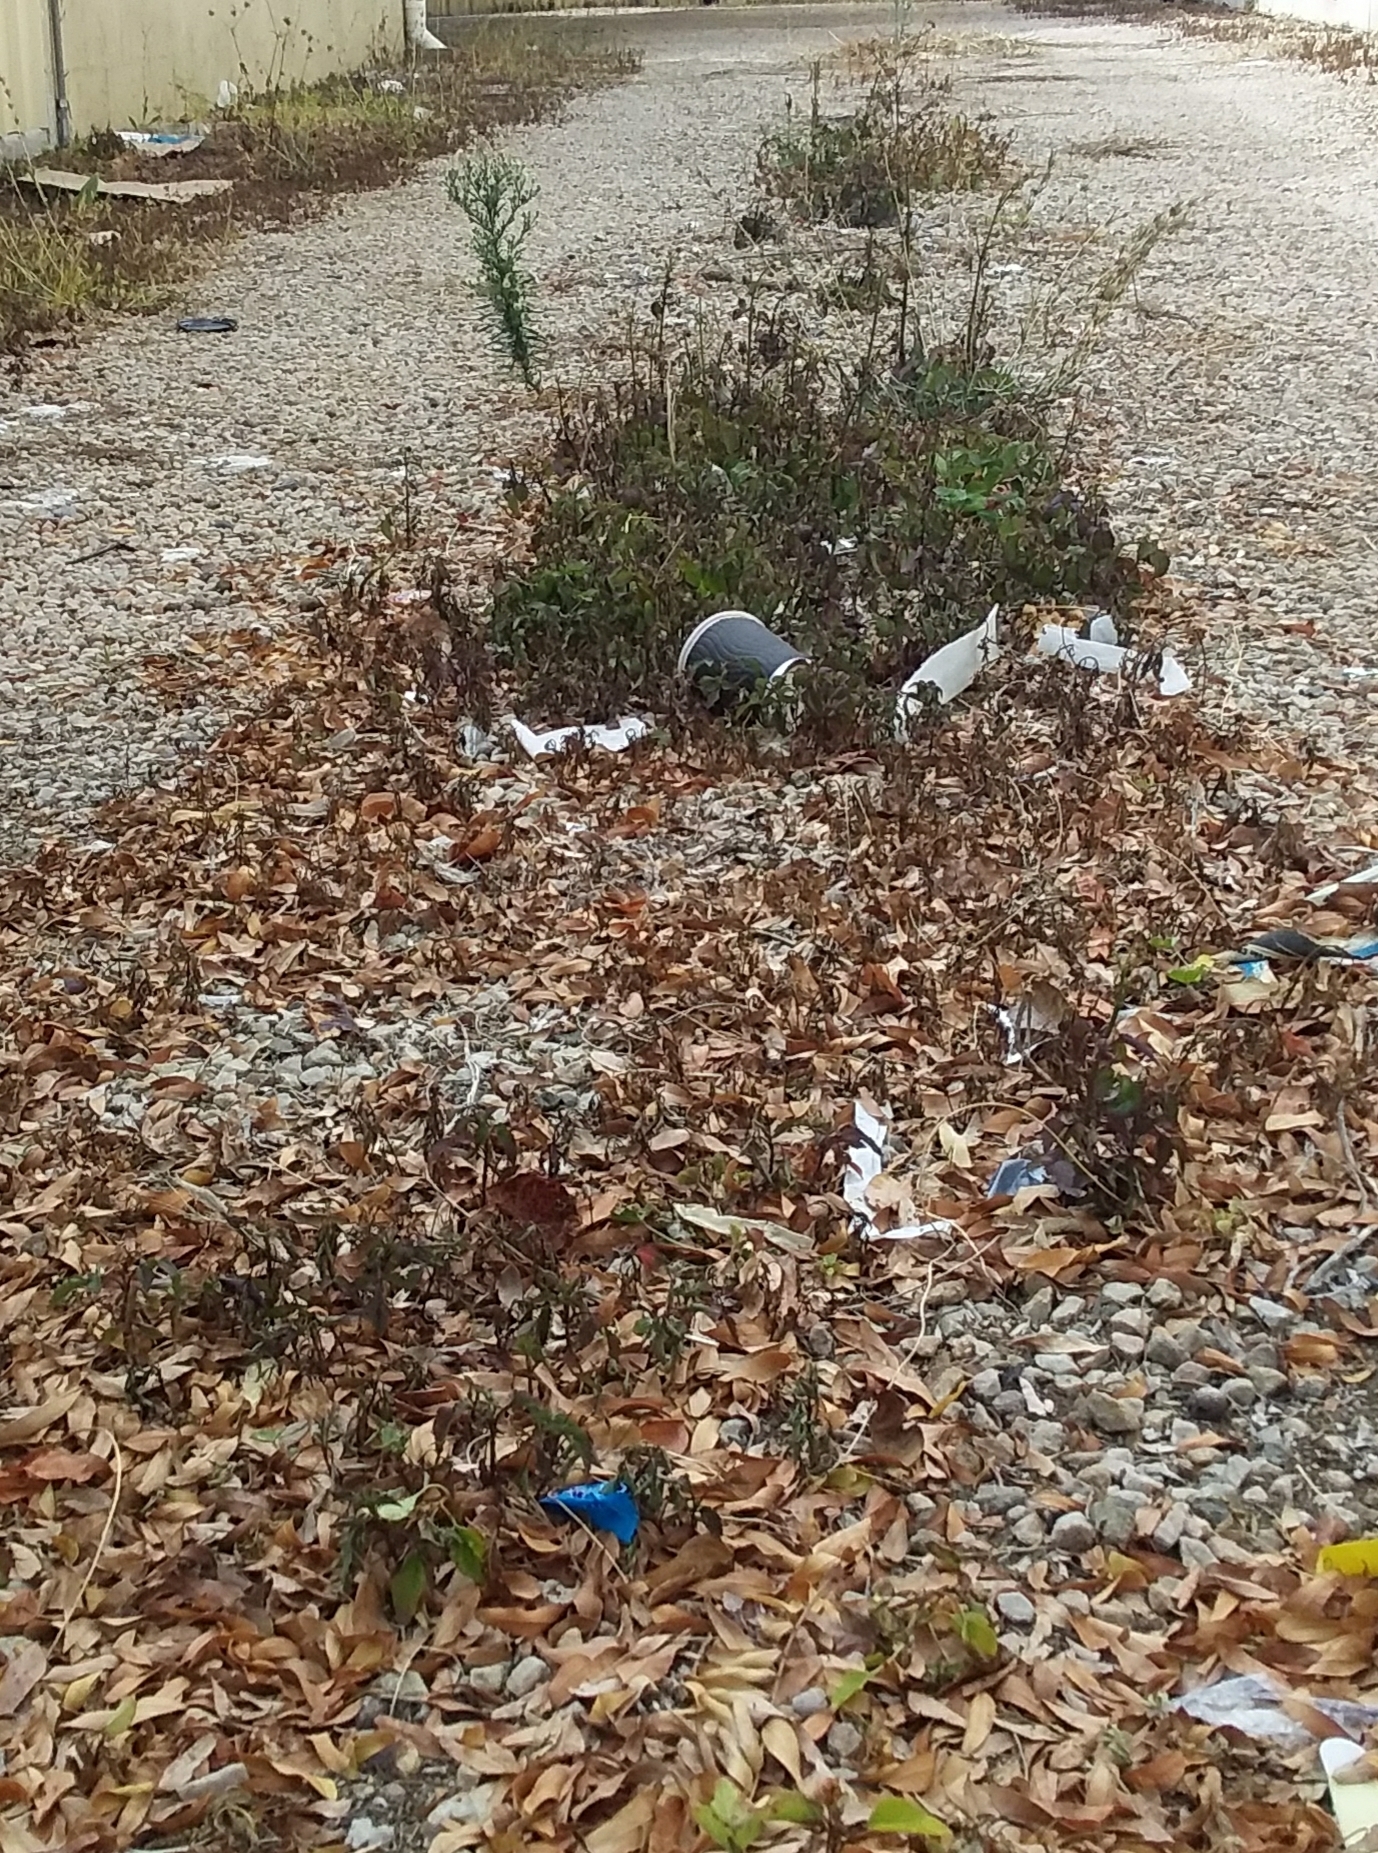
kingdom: Plantae
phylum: Tracheophyta
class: Magnoliopsida
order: Asterales
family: Asteraceae
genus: Bidens
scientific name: Bidens pilosa
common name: Black-jack
